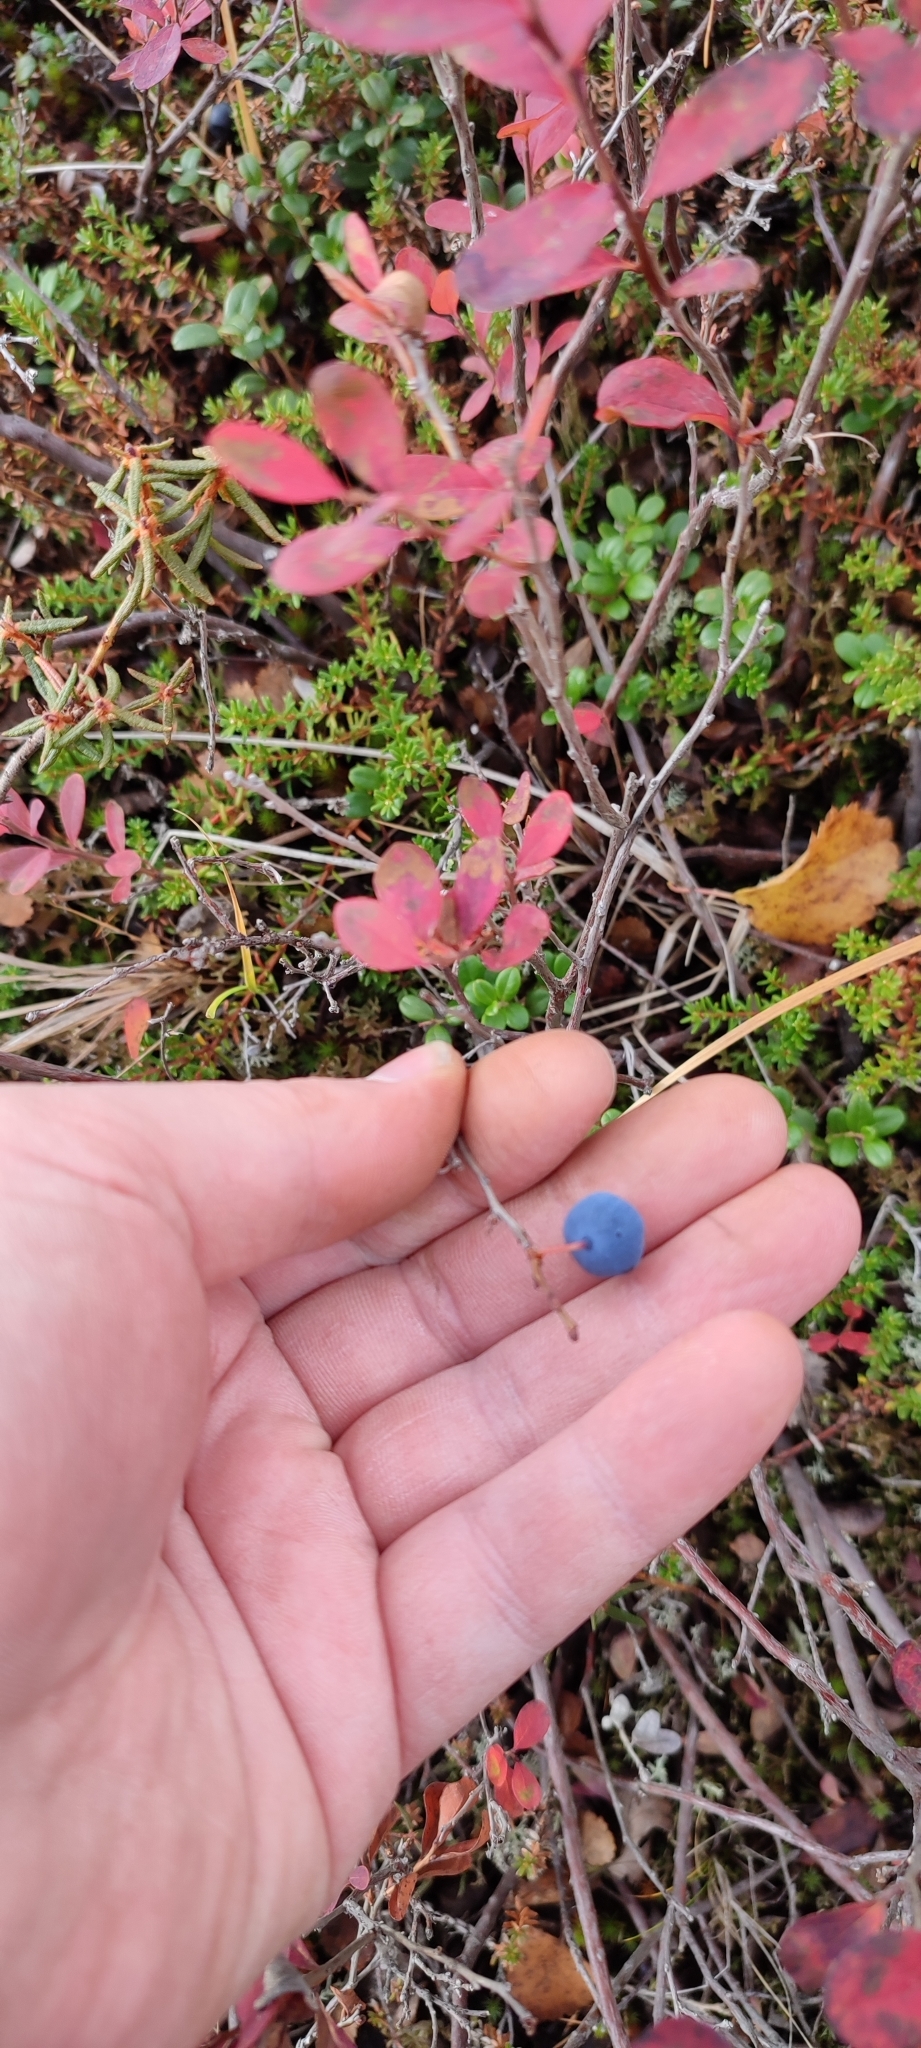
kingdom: Plantae
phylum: Tracheophyta
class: Magnoliopsida
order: Ericales
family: Ericaceae
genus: Vaccinium
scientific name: Vaccinium uliginosum
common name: Bog bilberry
